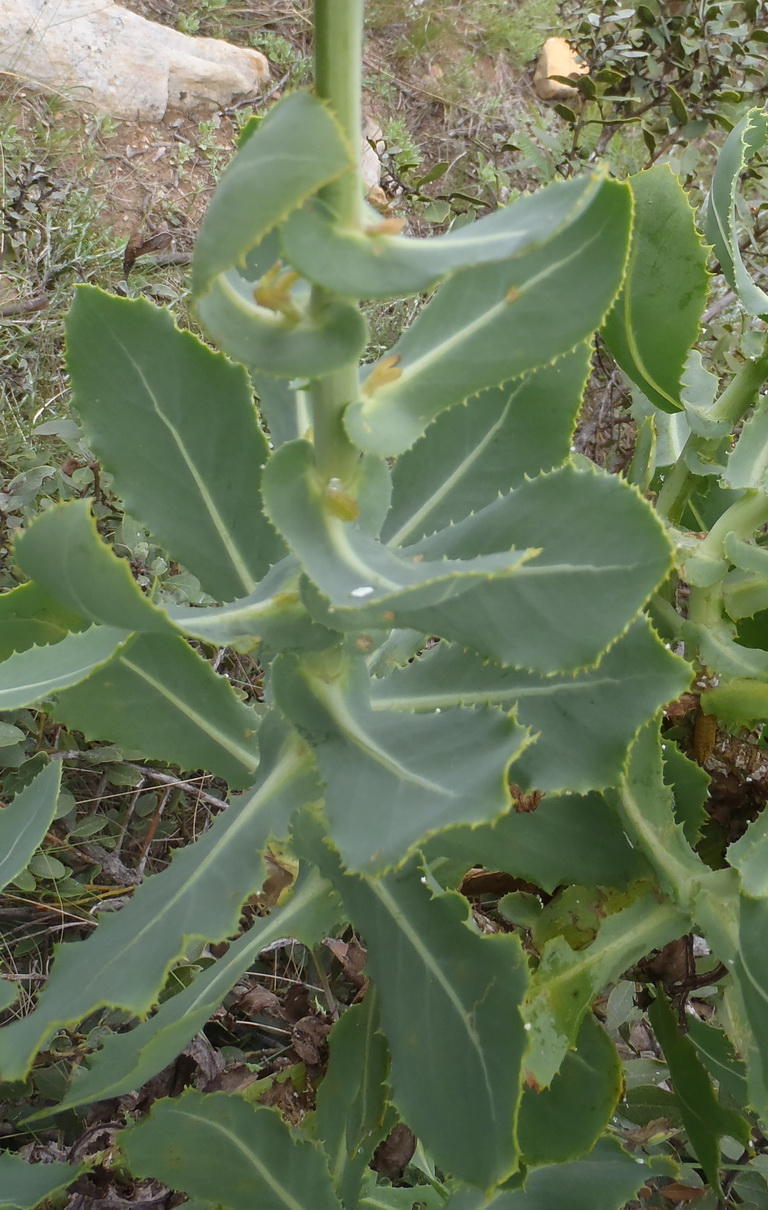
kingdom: Plantae
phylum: Tracheophyta
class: Magnoliopsida
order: Asterales
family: Asteraceae
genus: Othonna
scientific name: Othonna parviflora
